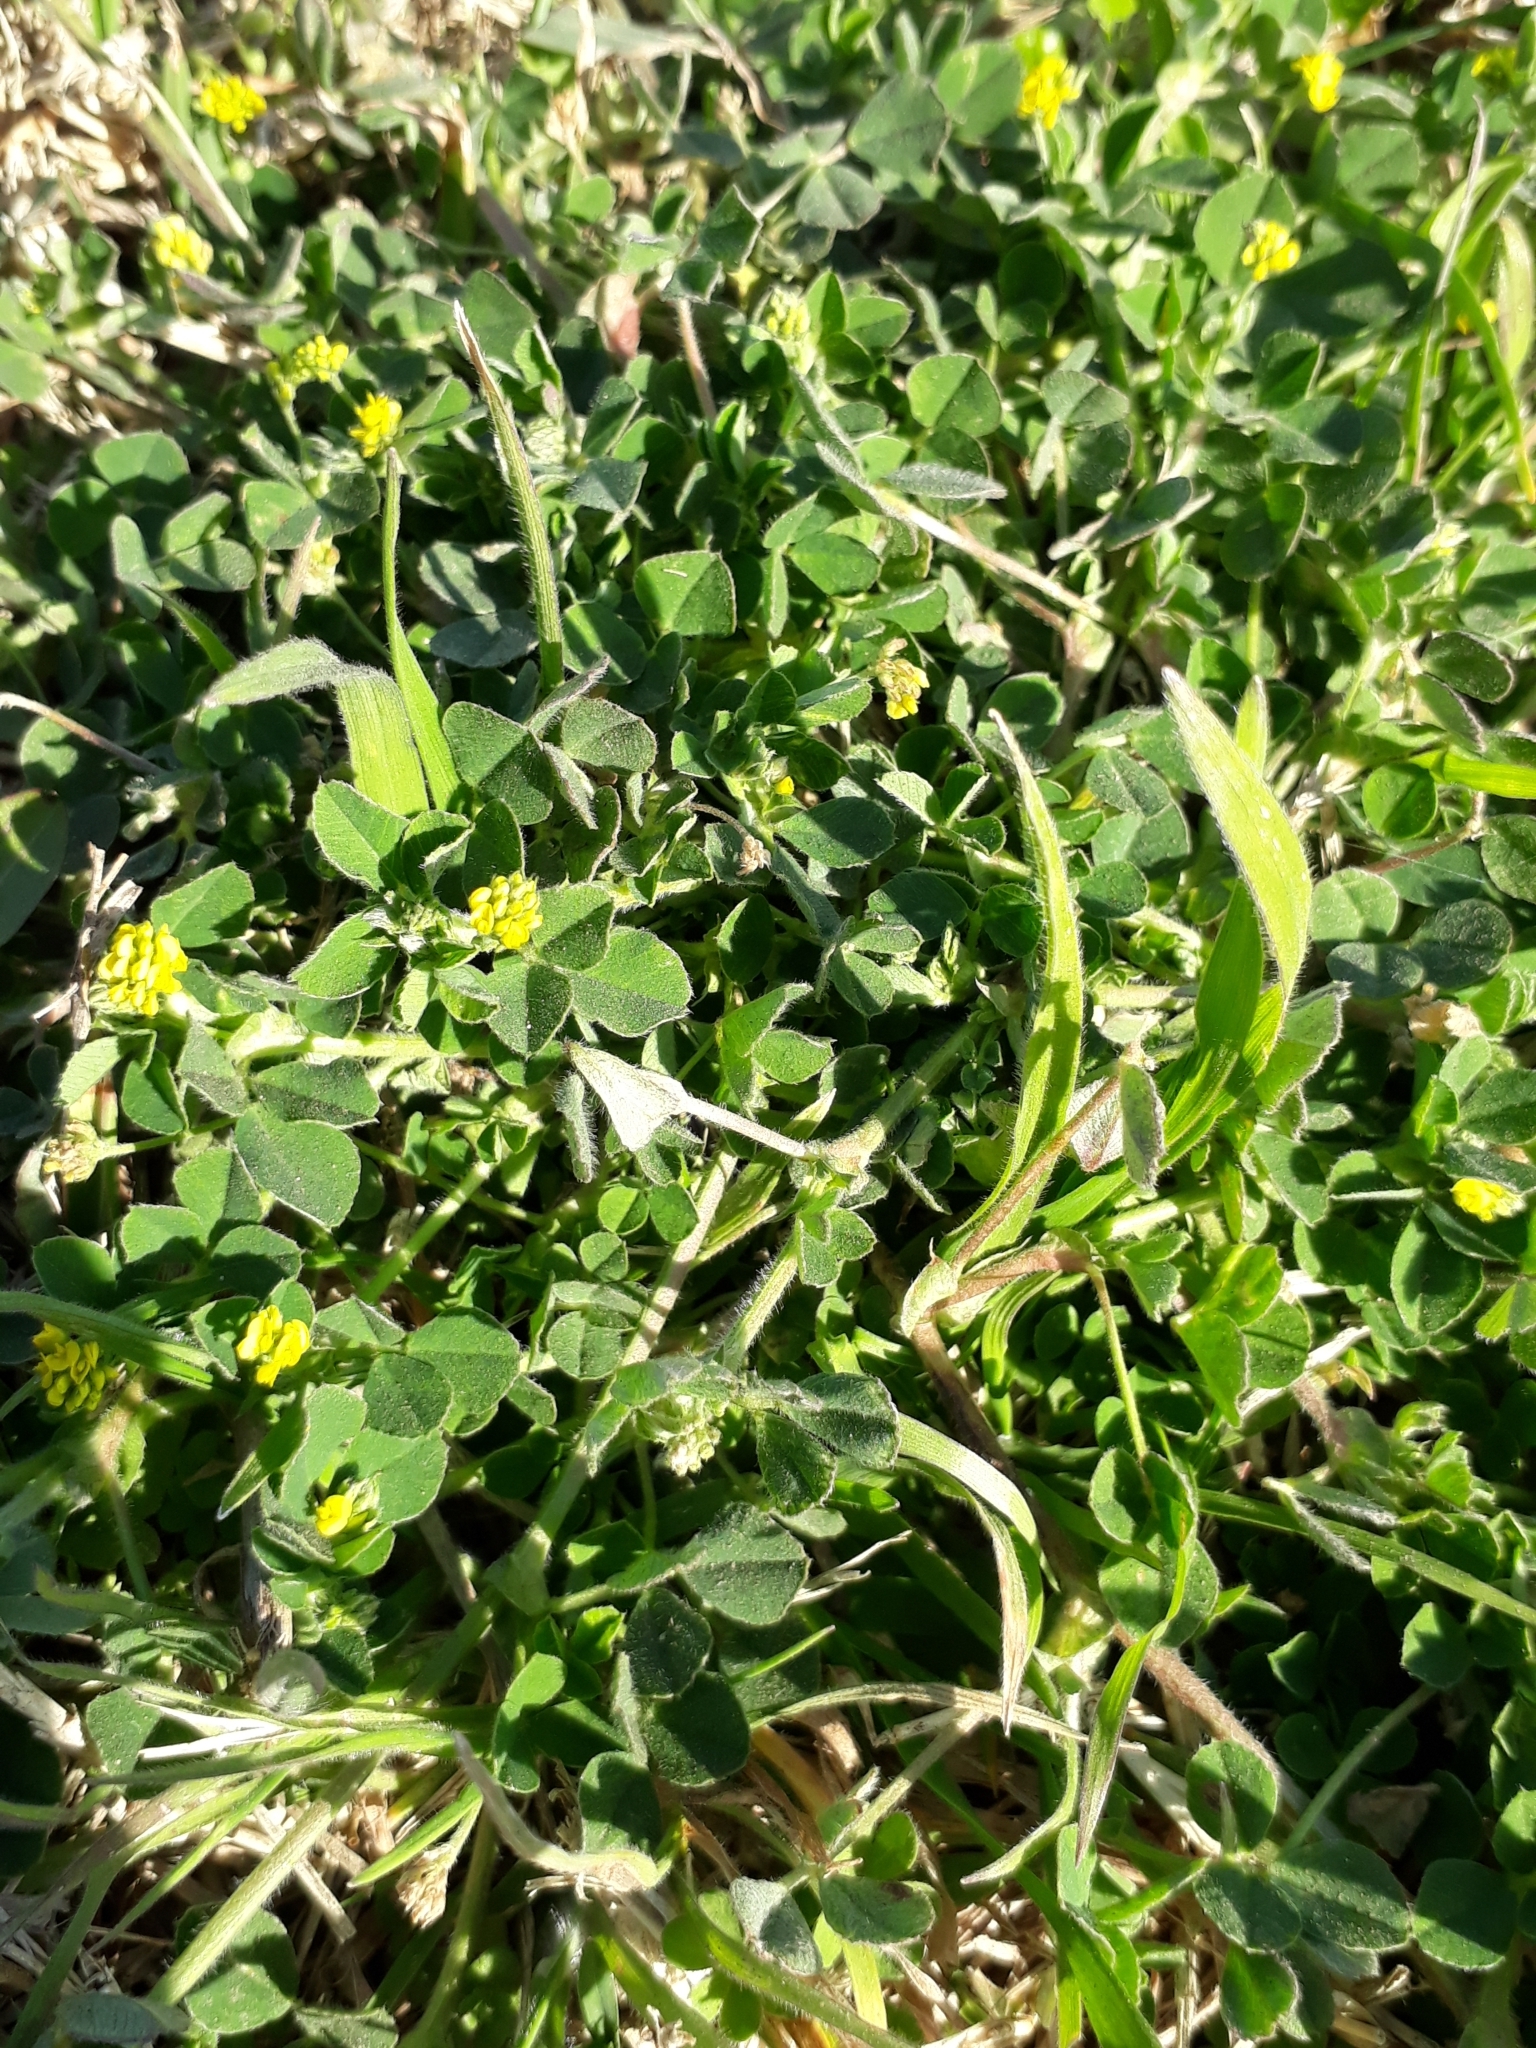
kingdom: Plantae
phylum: Tracheophyta
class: Magnoliopsida
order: Fabales
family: Fabaceae
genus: Medicago
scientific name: Medicago lupulina
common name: Black medick
